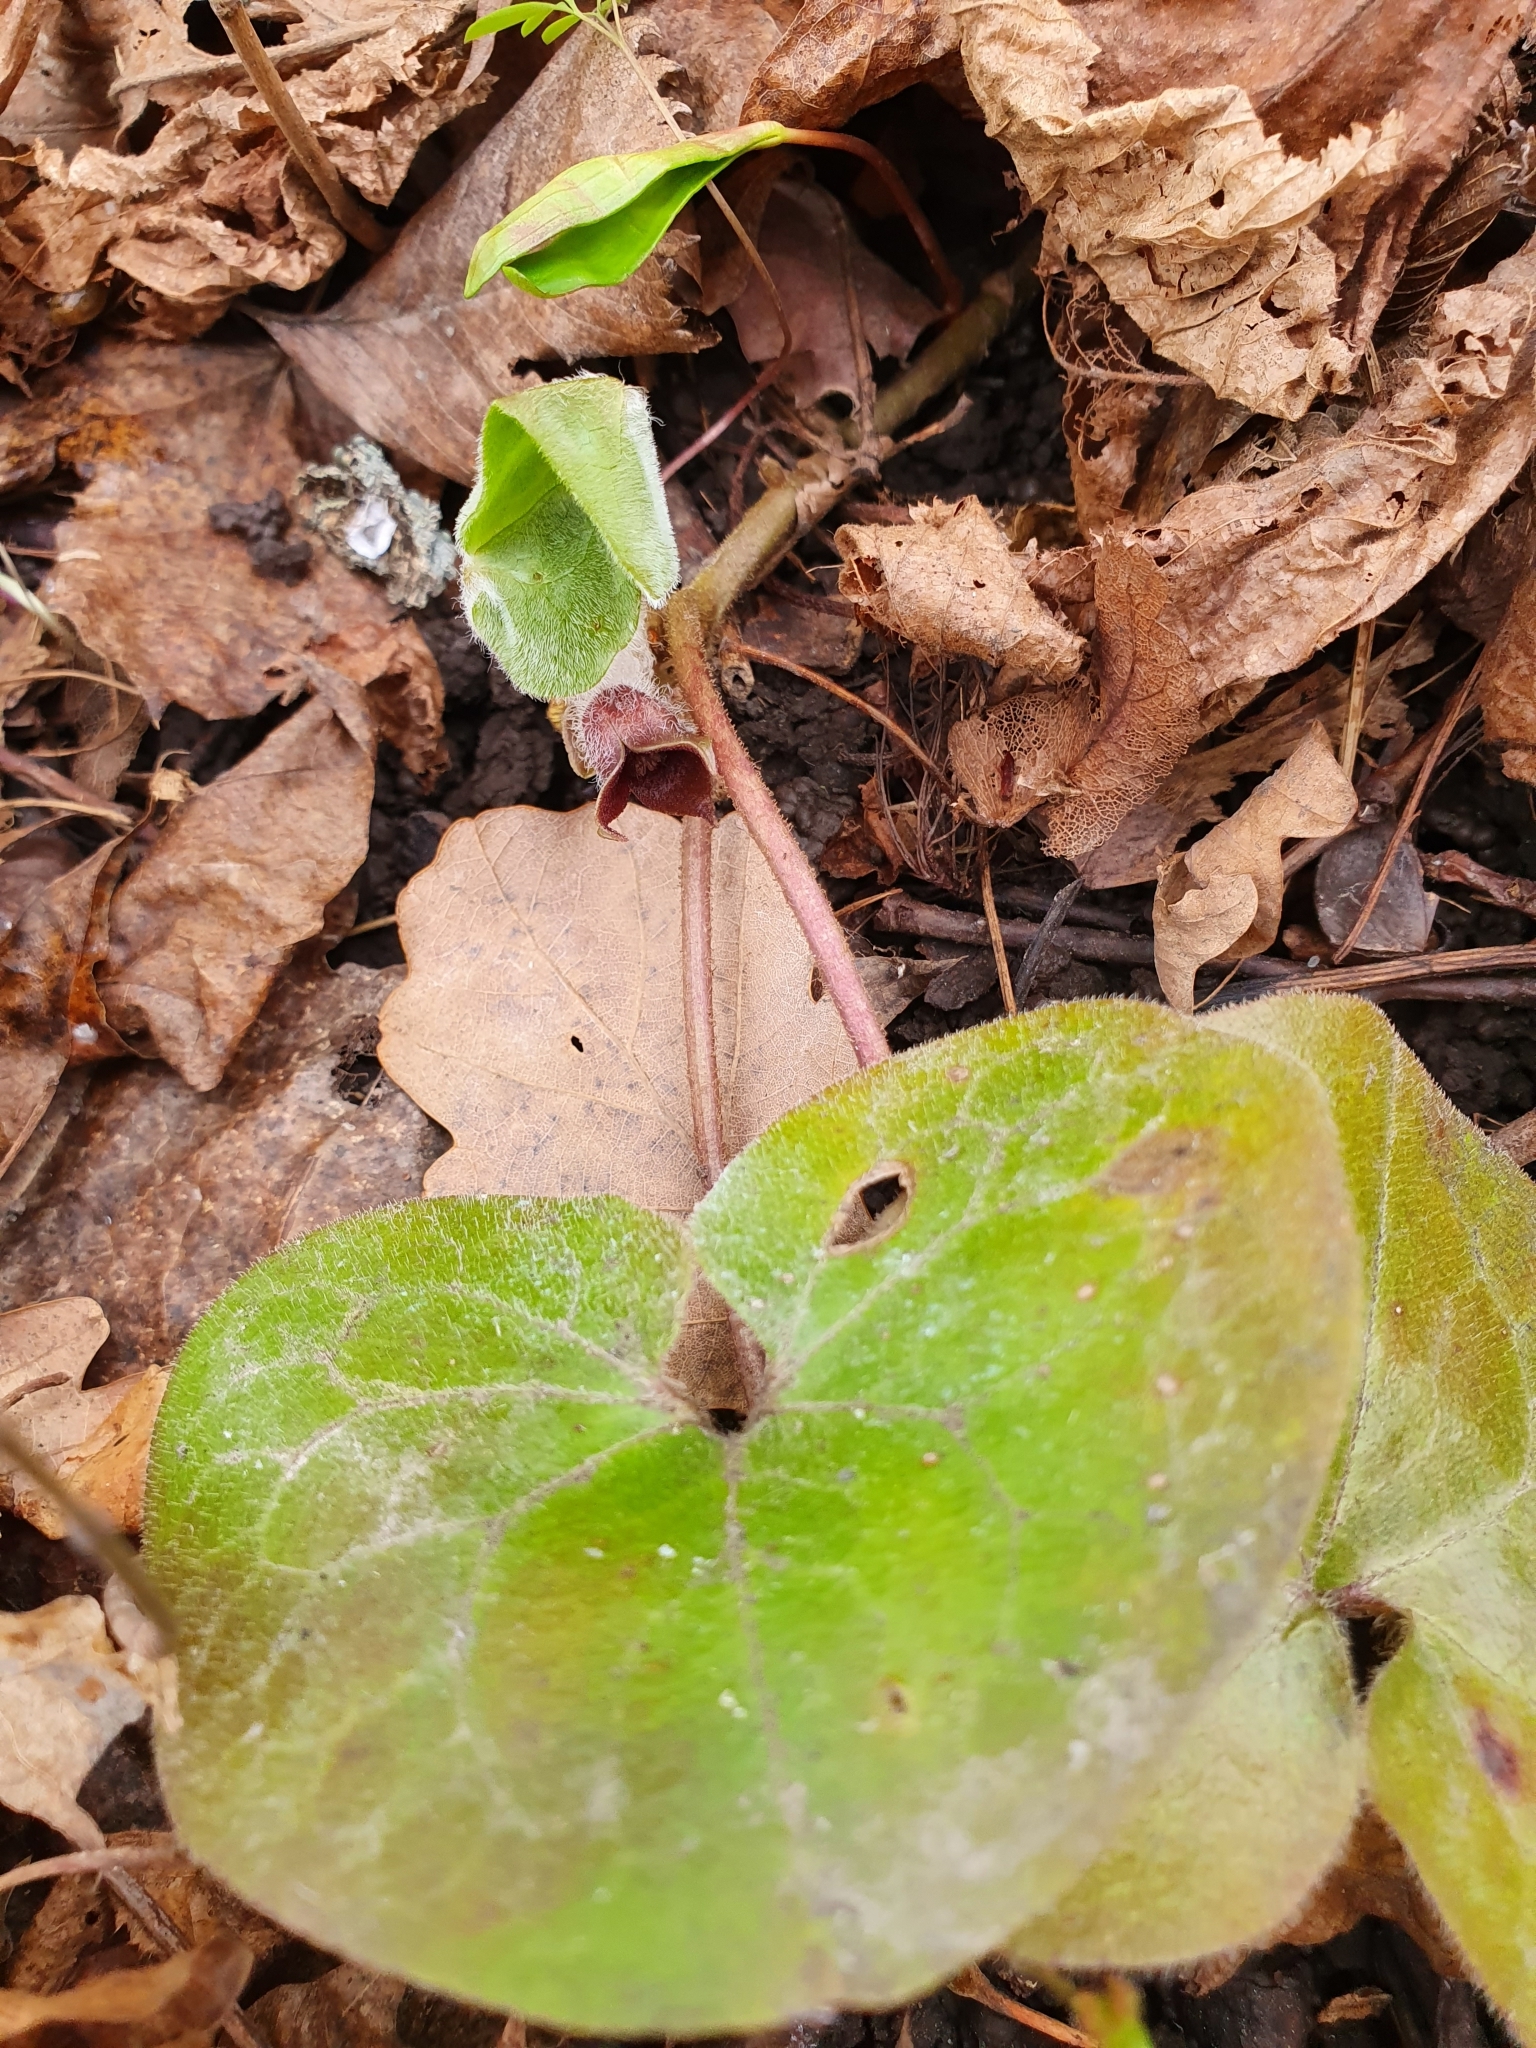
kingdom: Plantae
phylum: Tracheophyta
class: Magnoliopsida
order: Piperales
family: Aristolochiaceae
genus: Asarum
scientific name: Asarum europaeum
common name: Asarabacca
